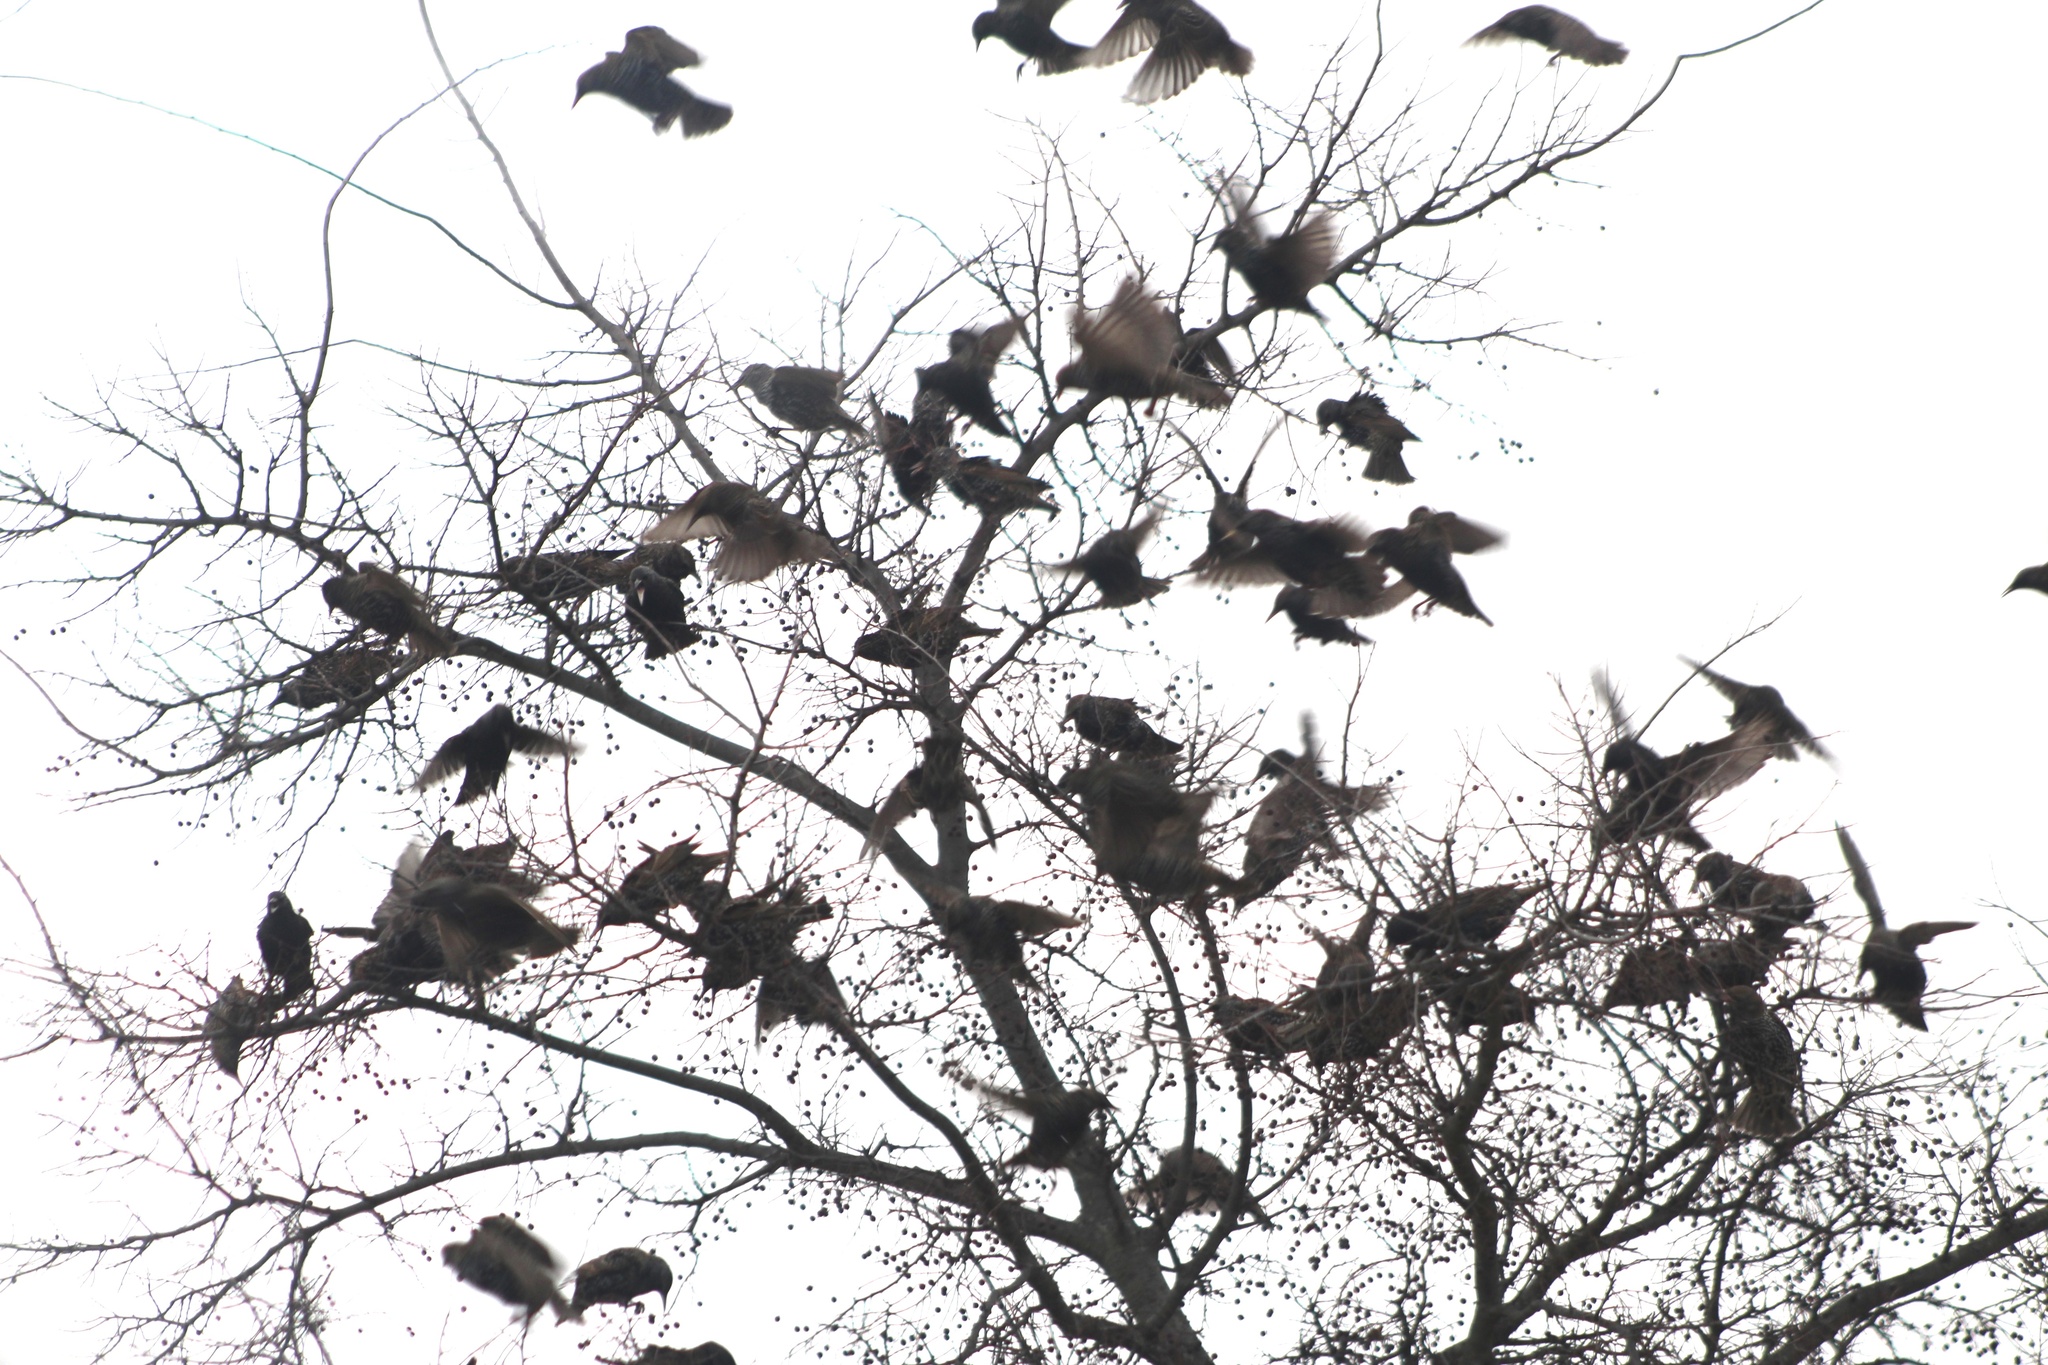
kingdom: Animalia
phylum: Chordata
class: Aves
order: Passeriformes
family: Sturnidae
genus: Sturnus
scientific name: Sturnus vulgaris
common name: Common starling
